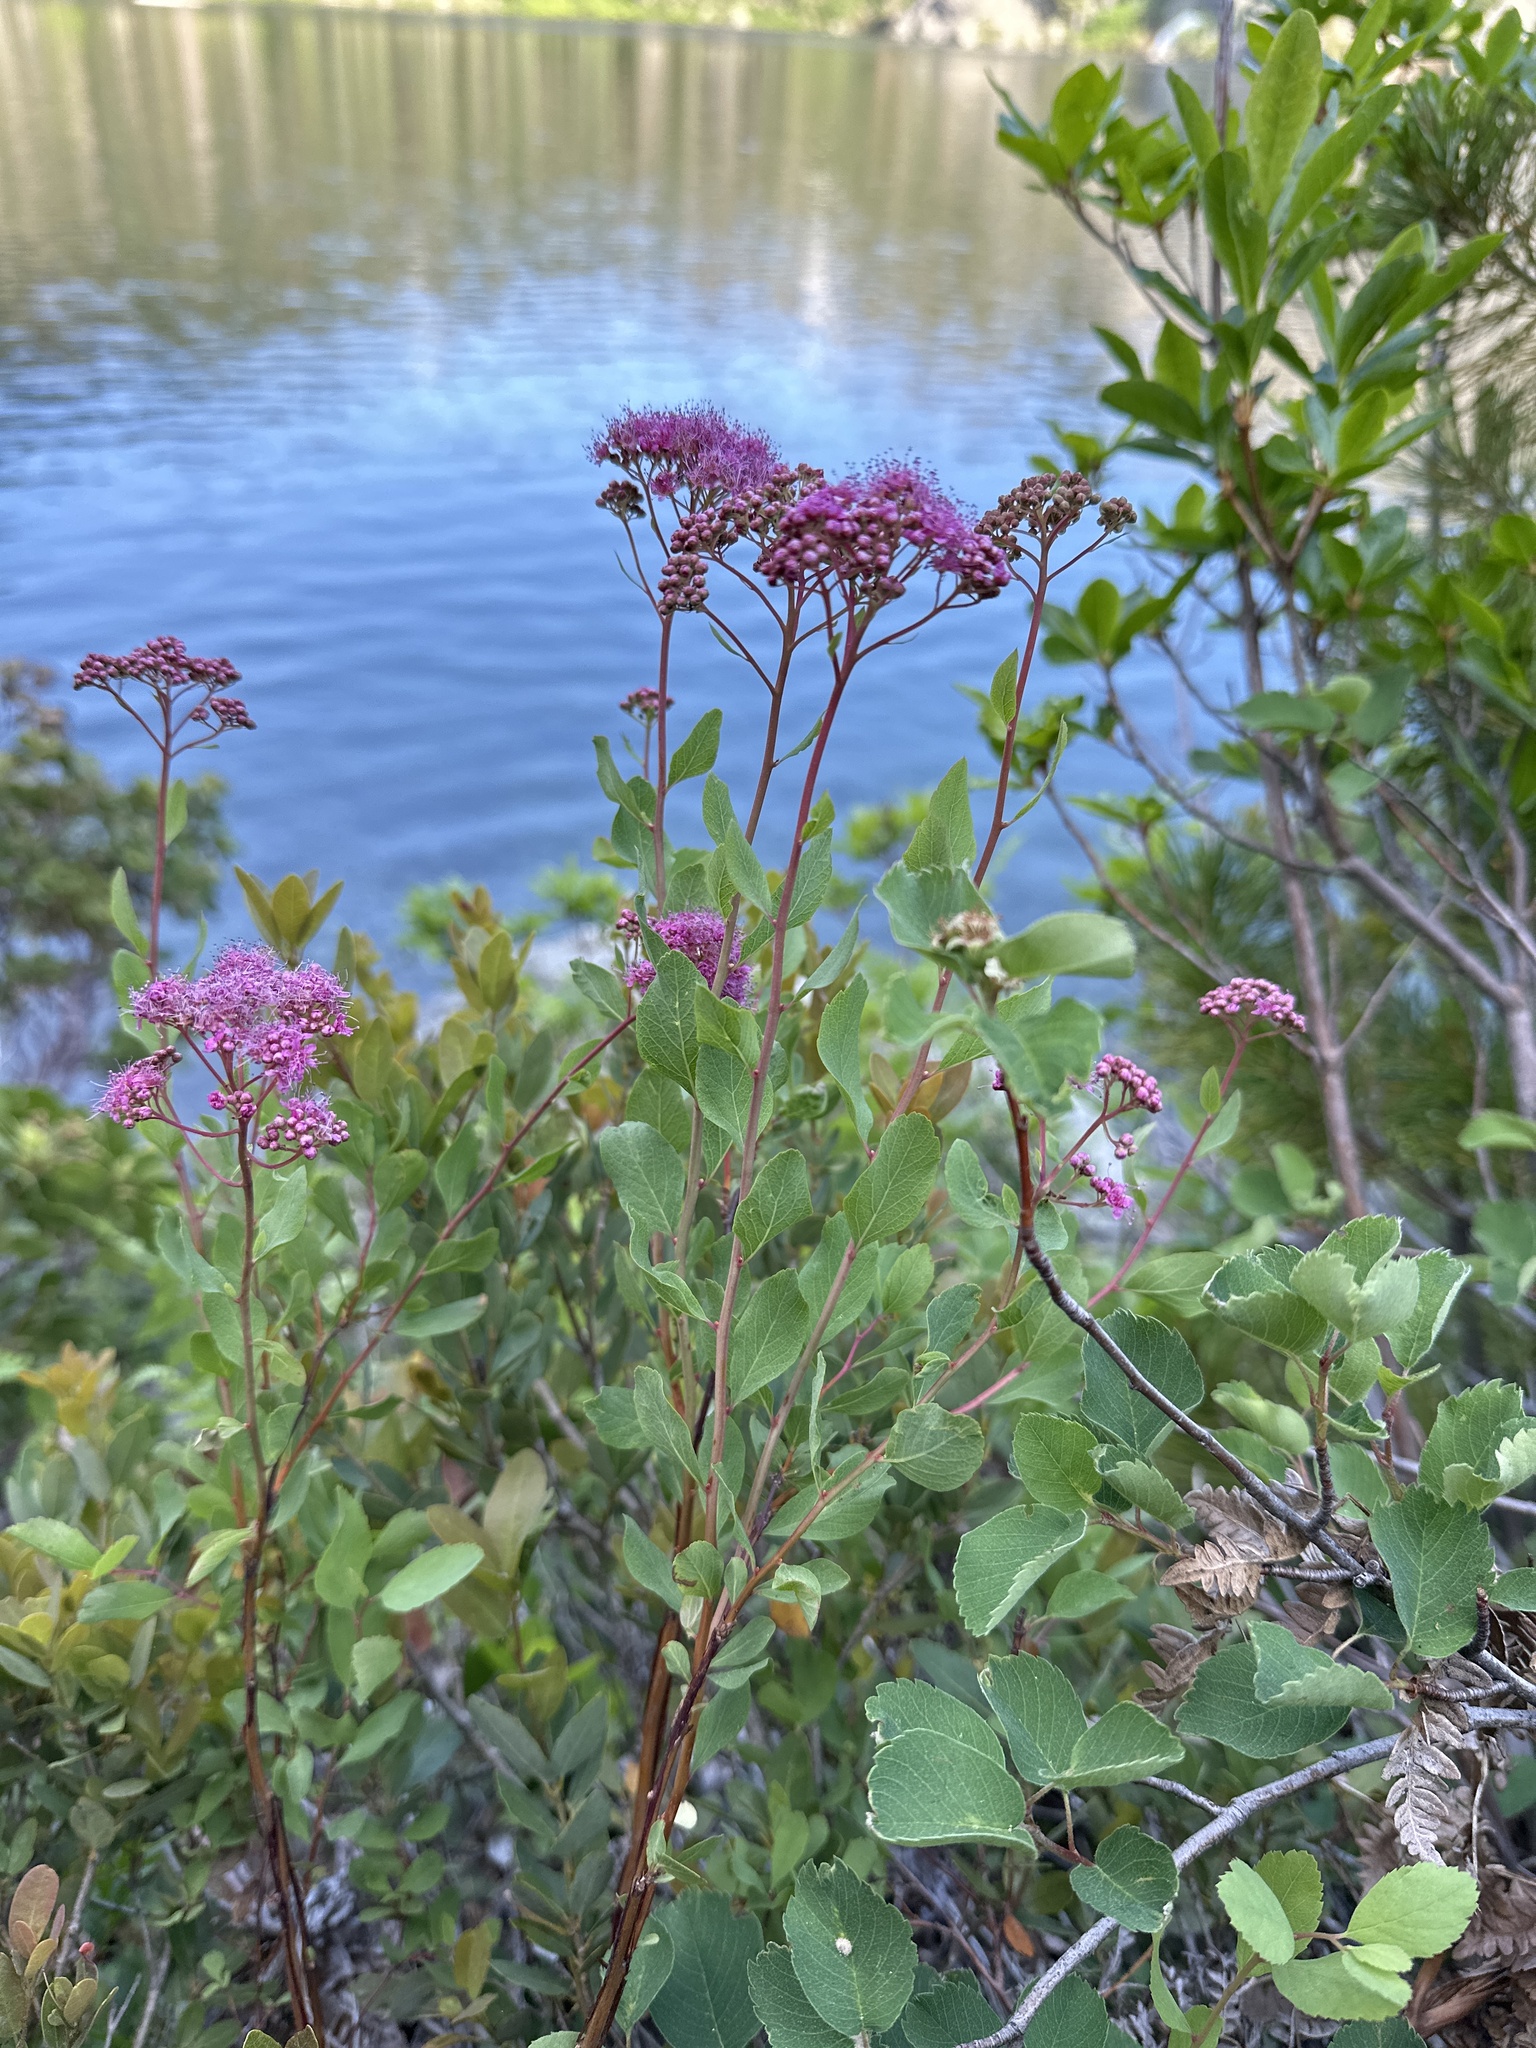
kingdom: Plantae
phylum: Tracheophyta
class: Magnoliopsida
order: Rosales
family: Rosaceae
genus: Spiraea
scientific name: Spiraea splendens
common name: Subalpine meadowsweet
